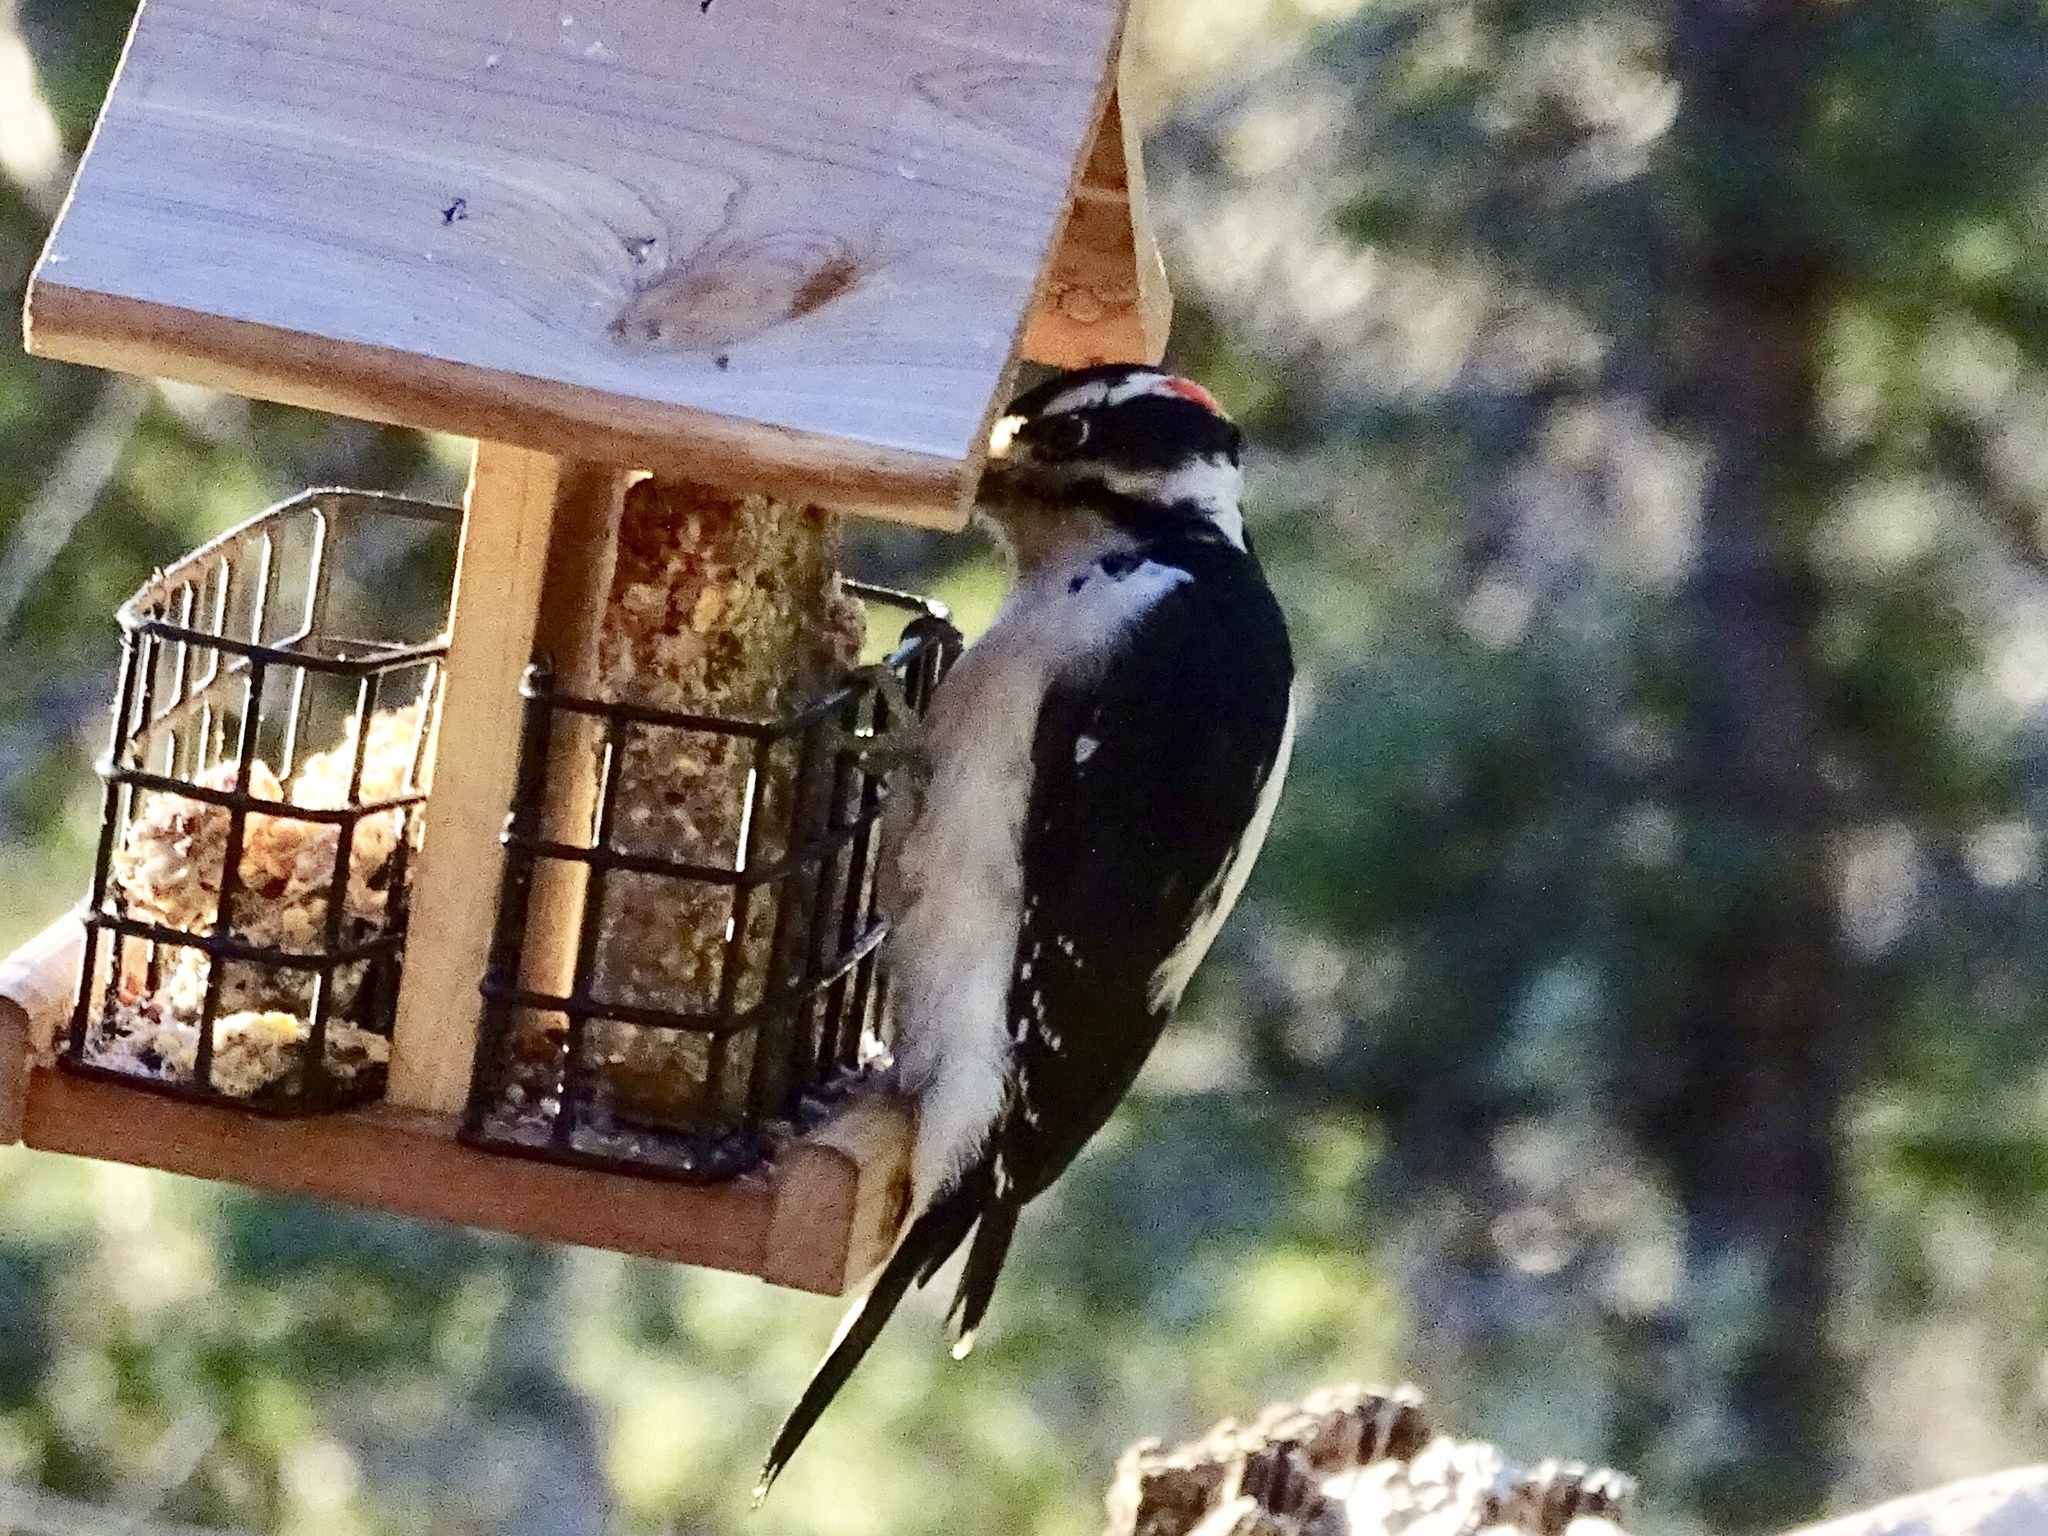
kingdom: Animalia
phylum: Chordata
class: Aves
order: Piciformes
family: Picidae
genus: Leuconotopicus
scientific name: Leuconotopicus villosus
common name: Hairy woodpecker
